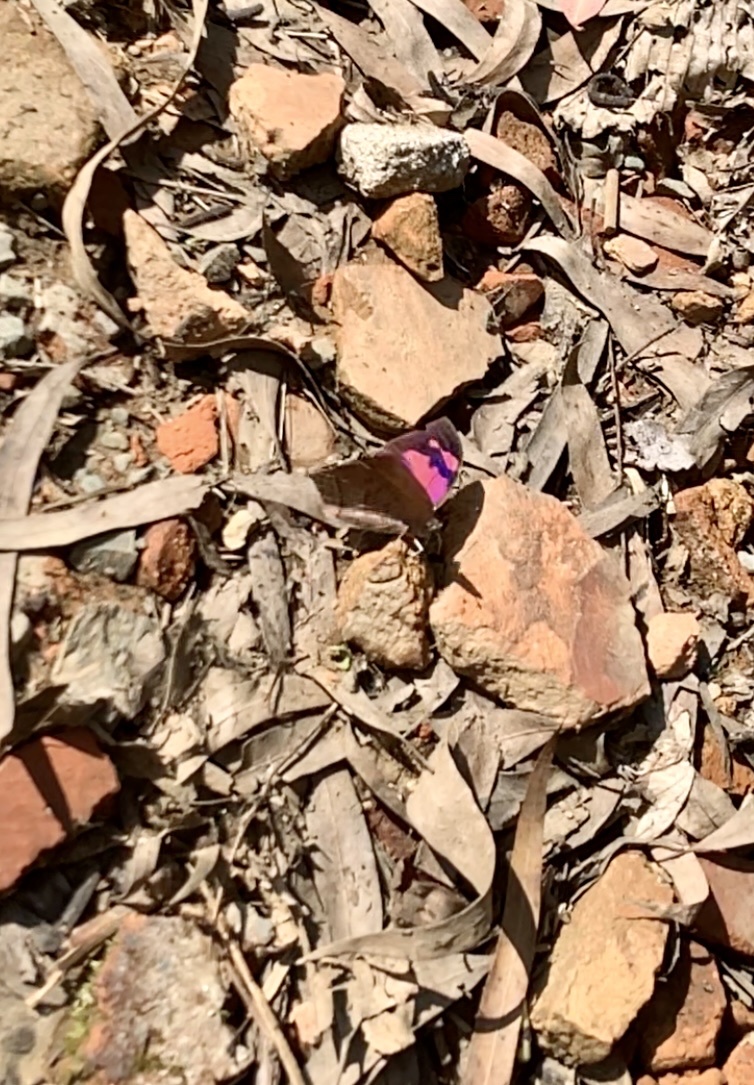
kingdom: Animalia
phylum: Arthropoda
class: Insecta
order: Lepidoptera
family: Nymphalidae
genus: Fountainea
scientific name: Fountainea
